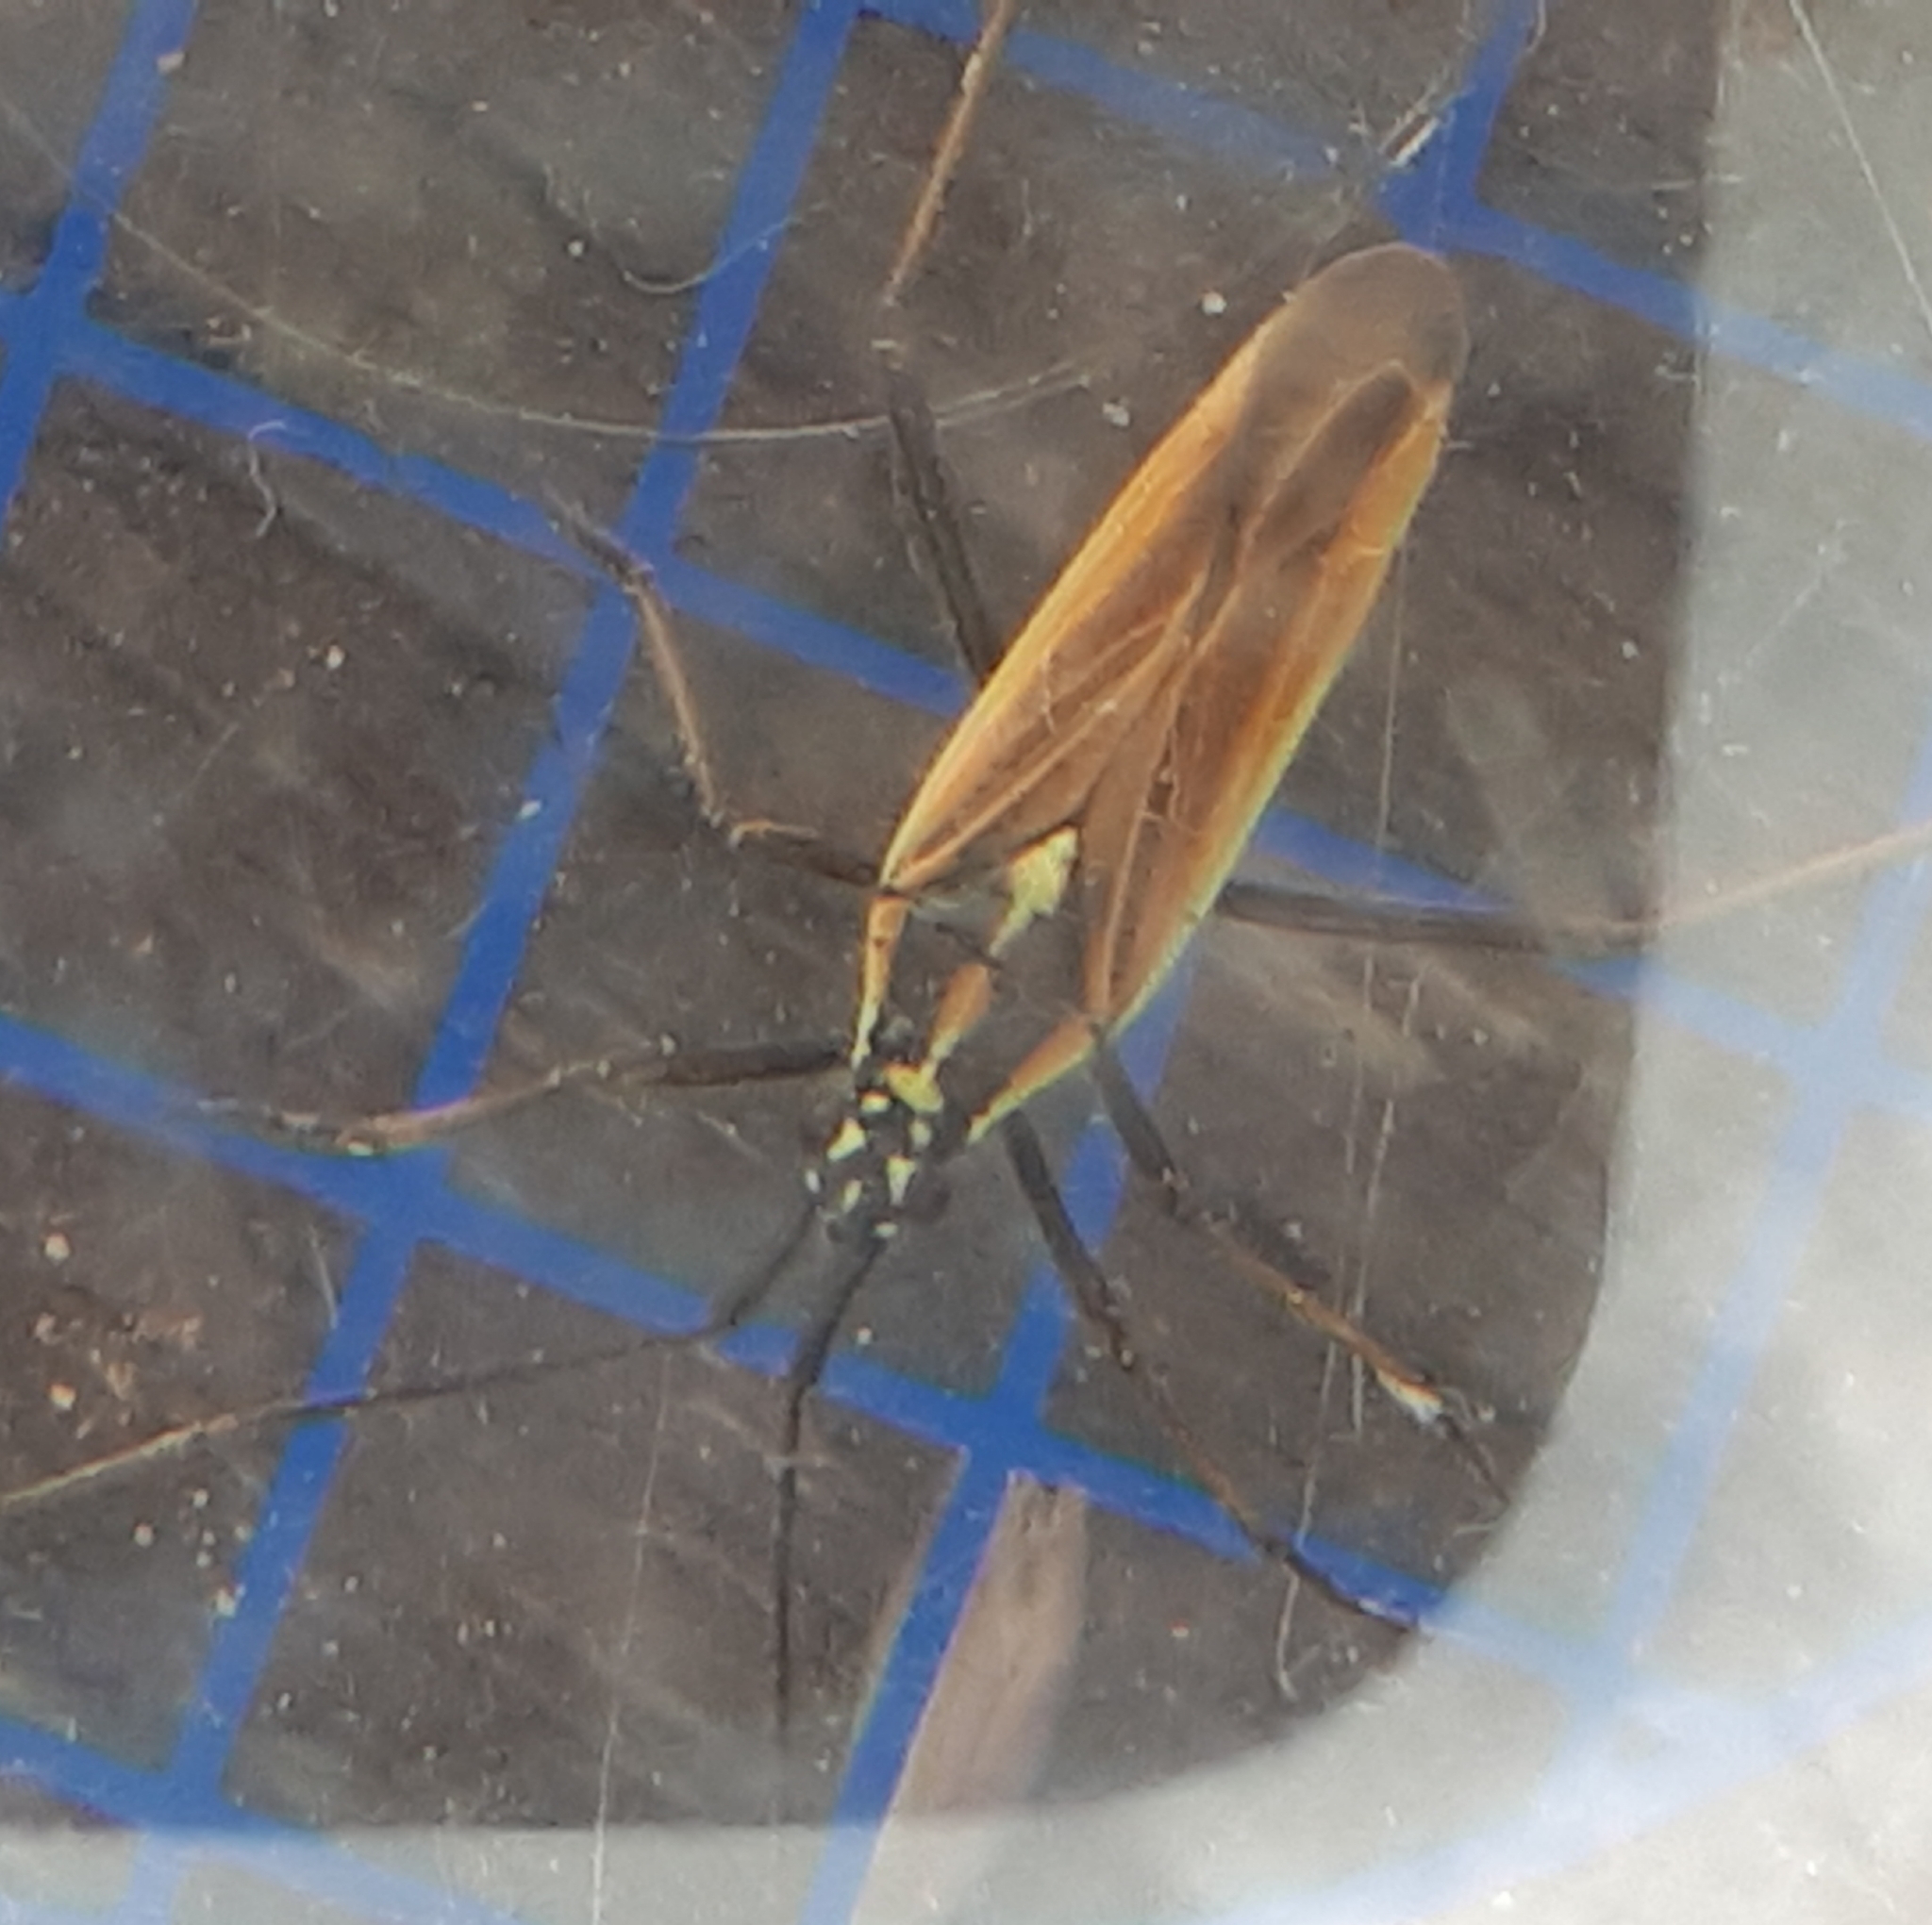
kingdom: Animalia
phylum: Arthropoda
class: Insecta
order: Hemiptera
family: Miridae
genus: Leptopterna
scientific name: Leptopterna dolabrata
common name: Meadow plant bug
